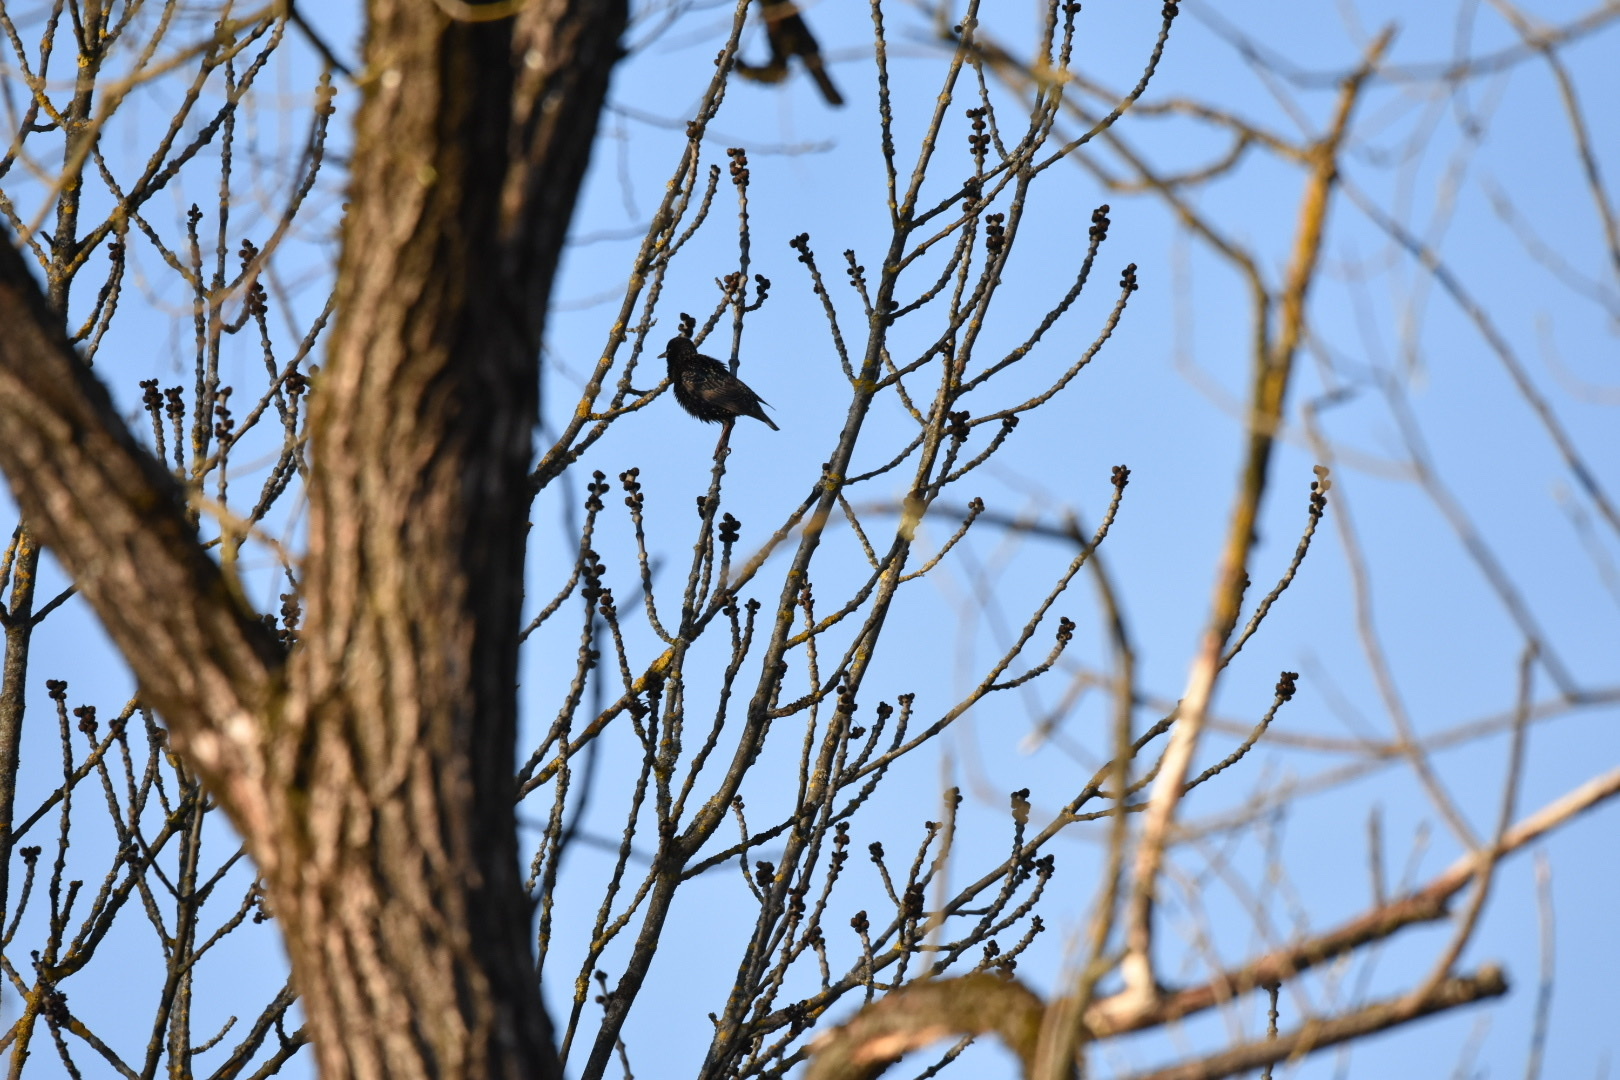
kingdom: Animalia
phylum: Chordata
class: Aves
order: Passeriformes
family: Sturnidae
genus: Sturnus
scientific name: Sturnus vulgaris
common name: Common starling
